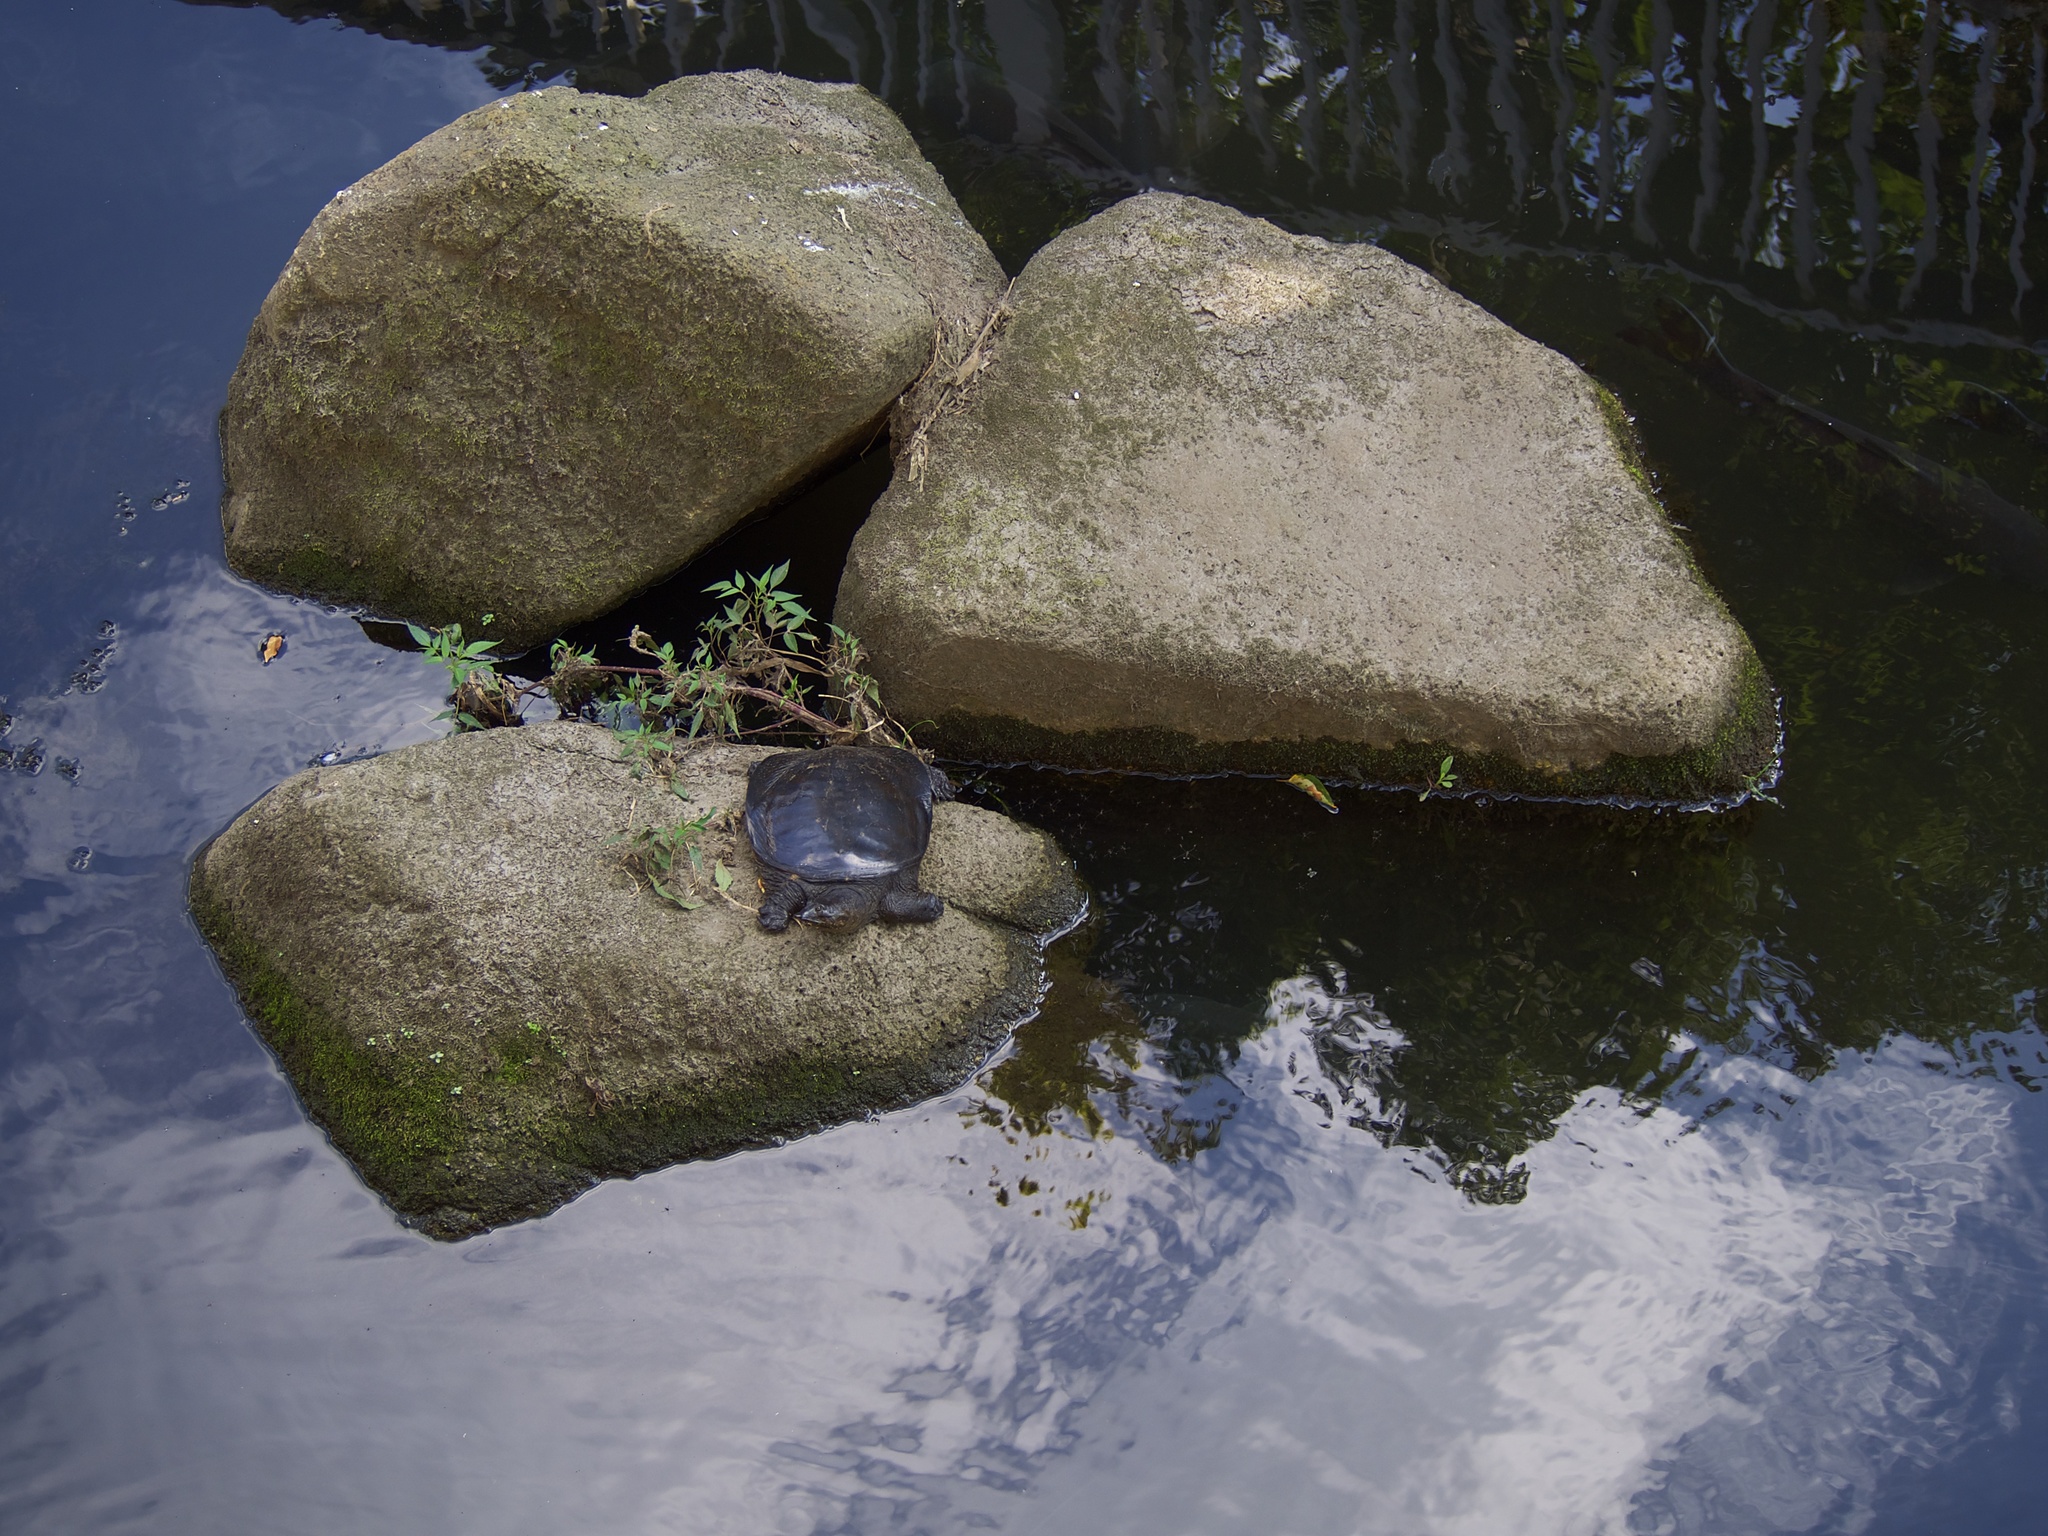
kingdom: Animalia
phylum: Chordata
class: Testudines
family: Trionychidae
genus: Pelodiscus
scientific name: Pelodiscus sinensis
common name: Chinese softshell turtle
